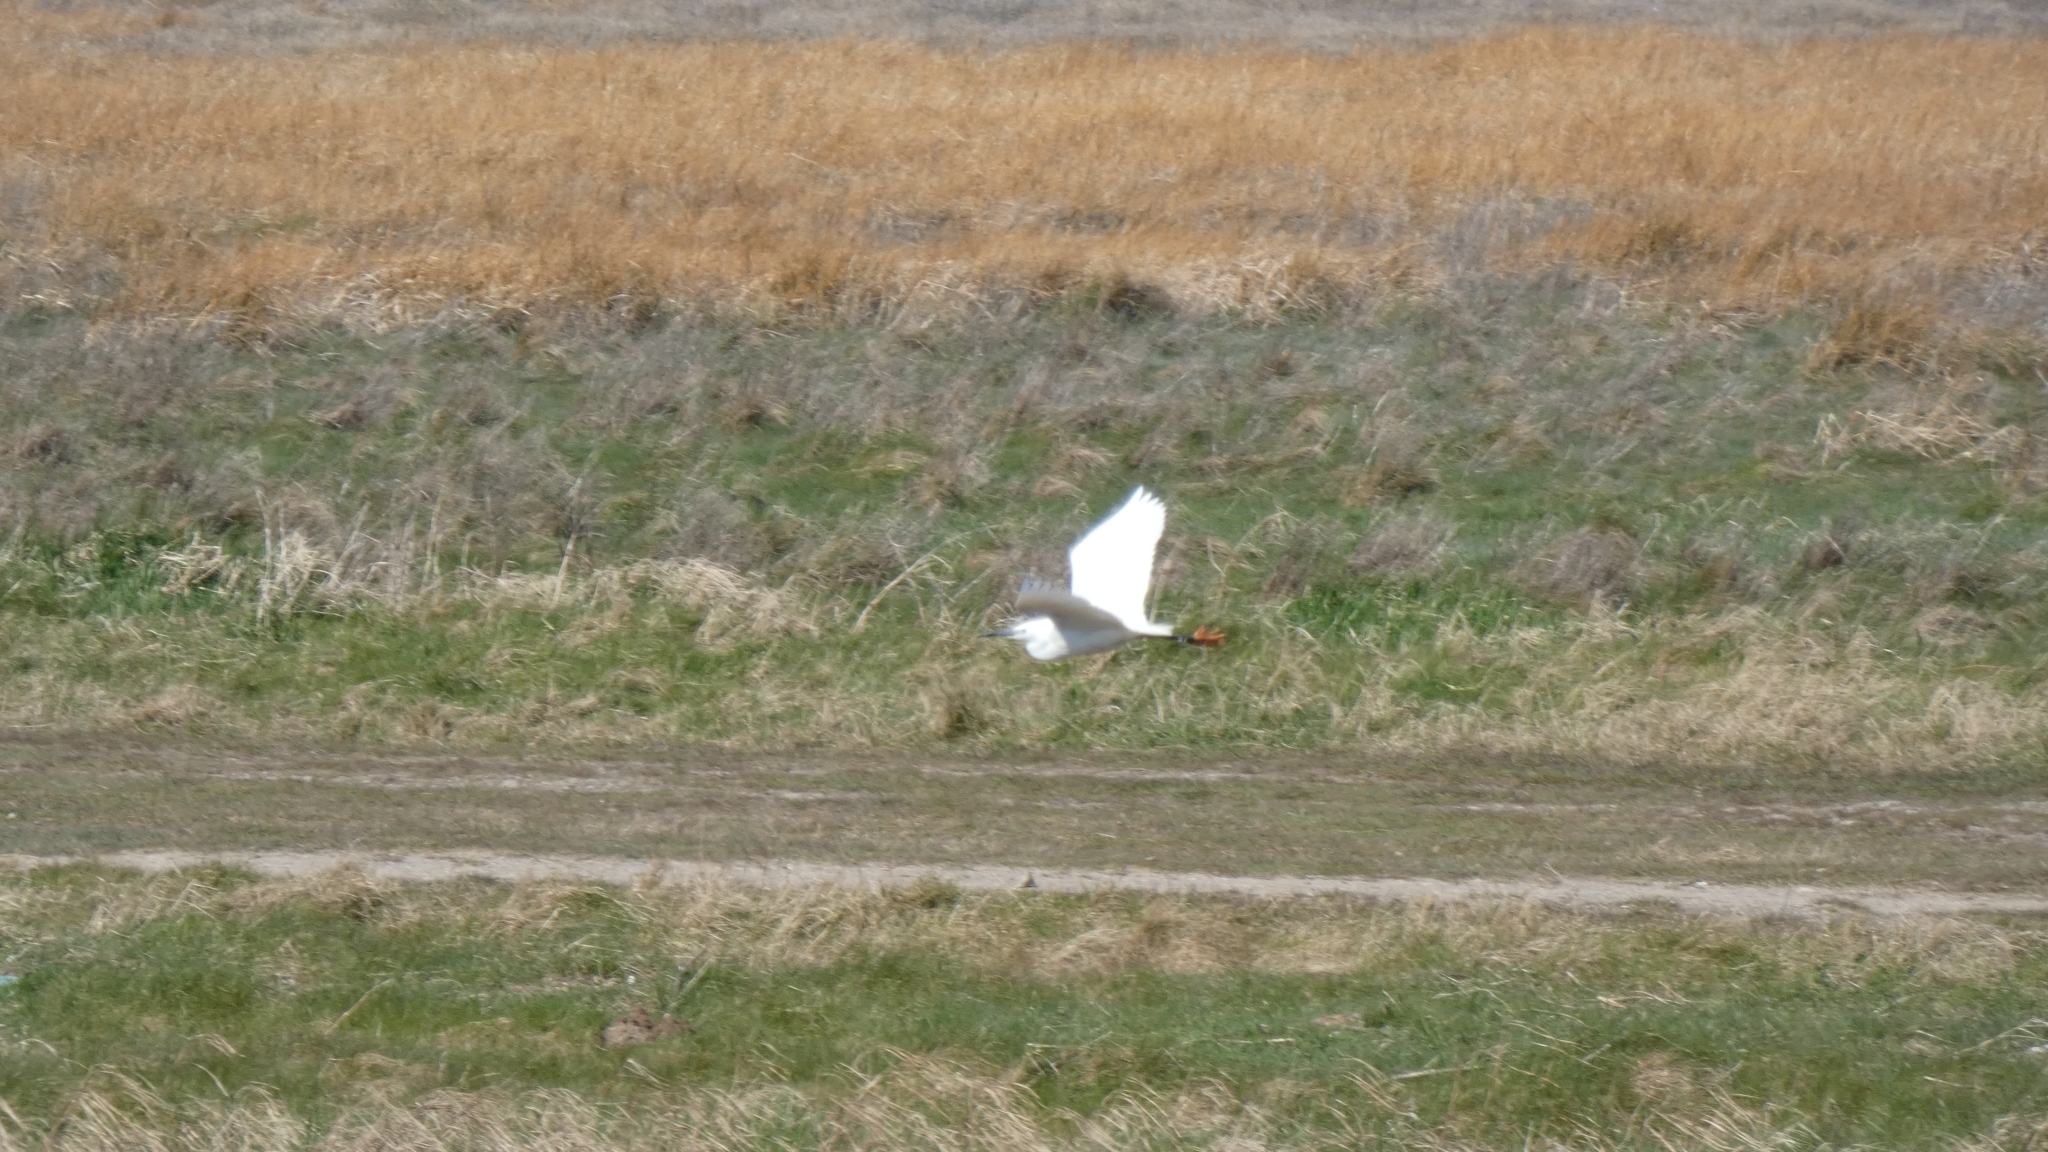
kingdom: Animalia
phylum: Chordata
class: Aves
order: Pelecaniformes
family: Ardeidae
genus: Egretta
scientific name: Egretta garzetta
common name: Little egret
